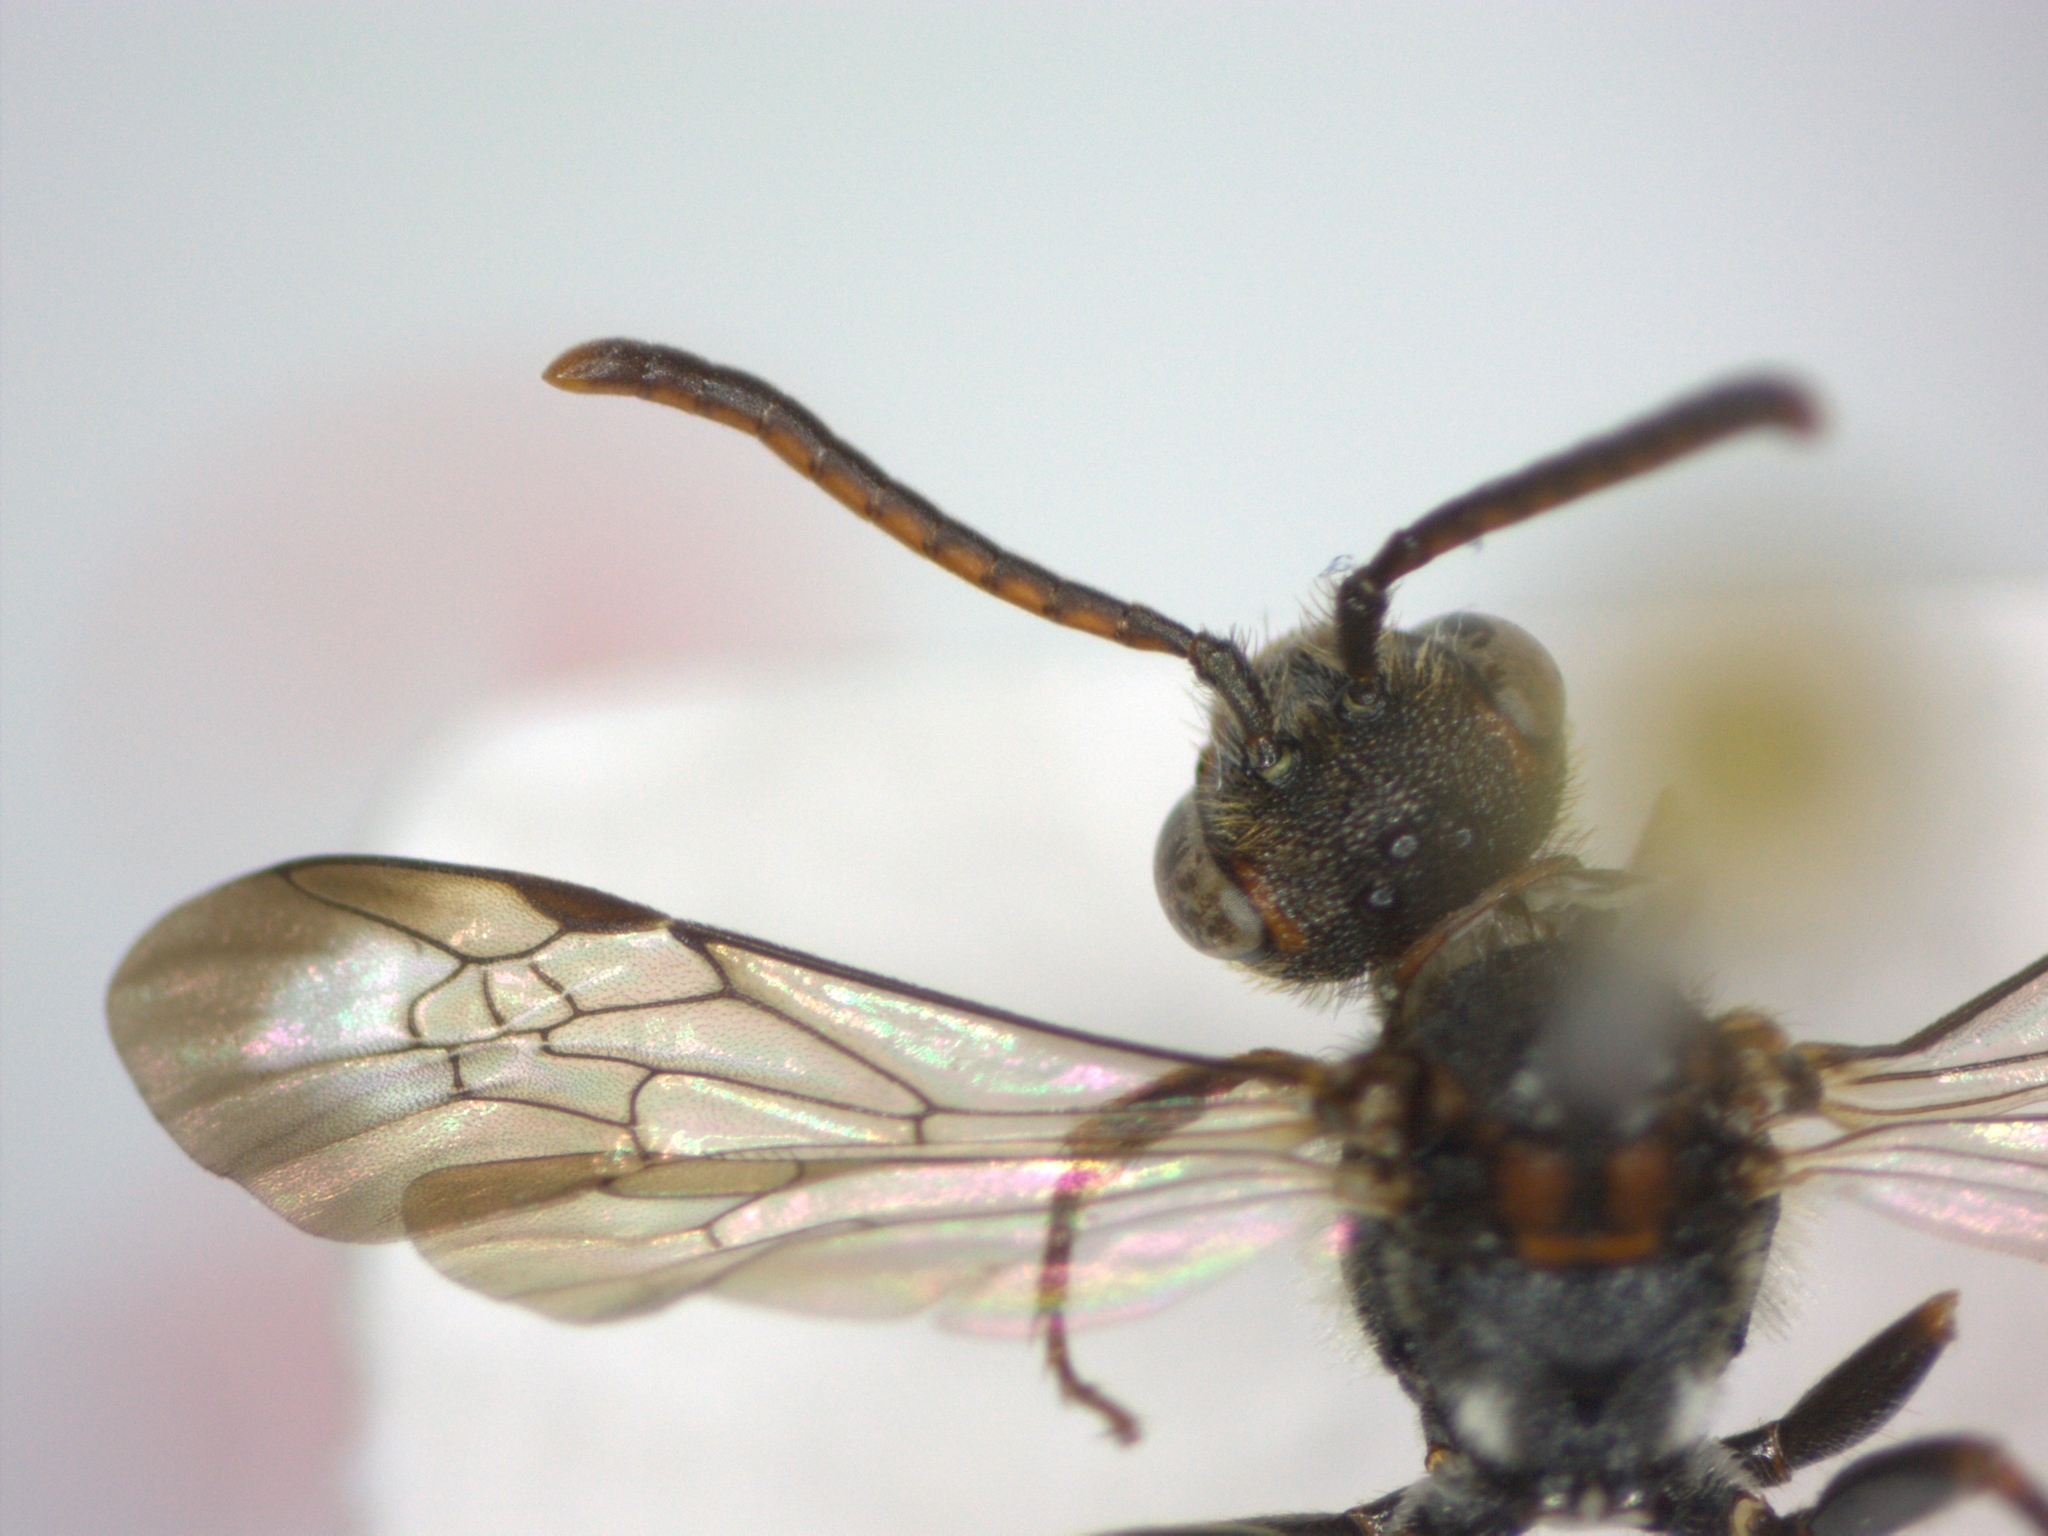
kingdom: Animalia
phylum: Arthropoda
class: Insecta
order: Hymenoptera
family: Apidae
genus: Nomada
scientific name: Nomada flavoguttata
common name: Little nomad bee
